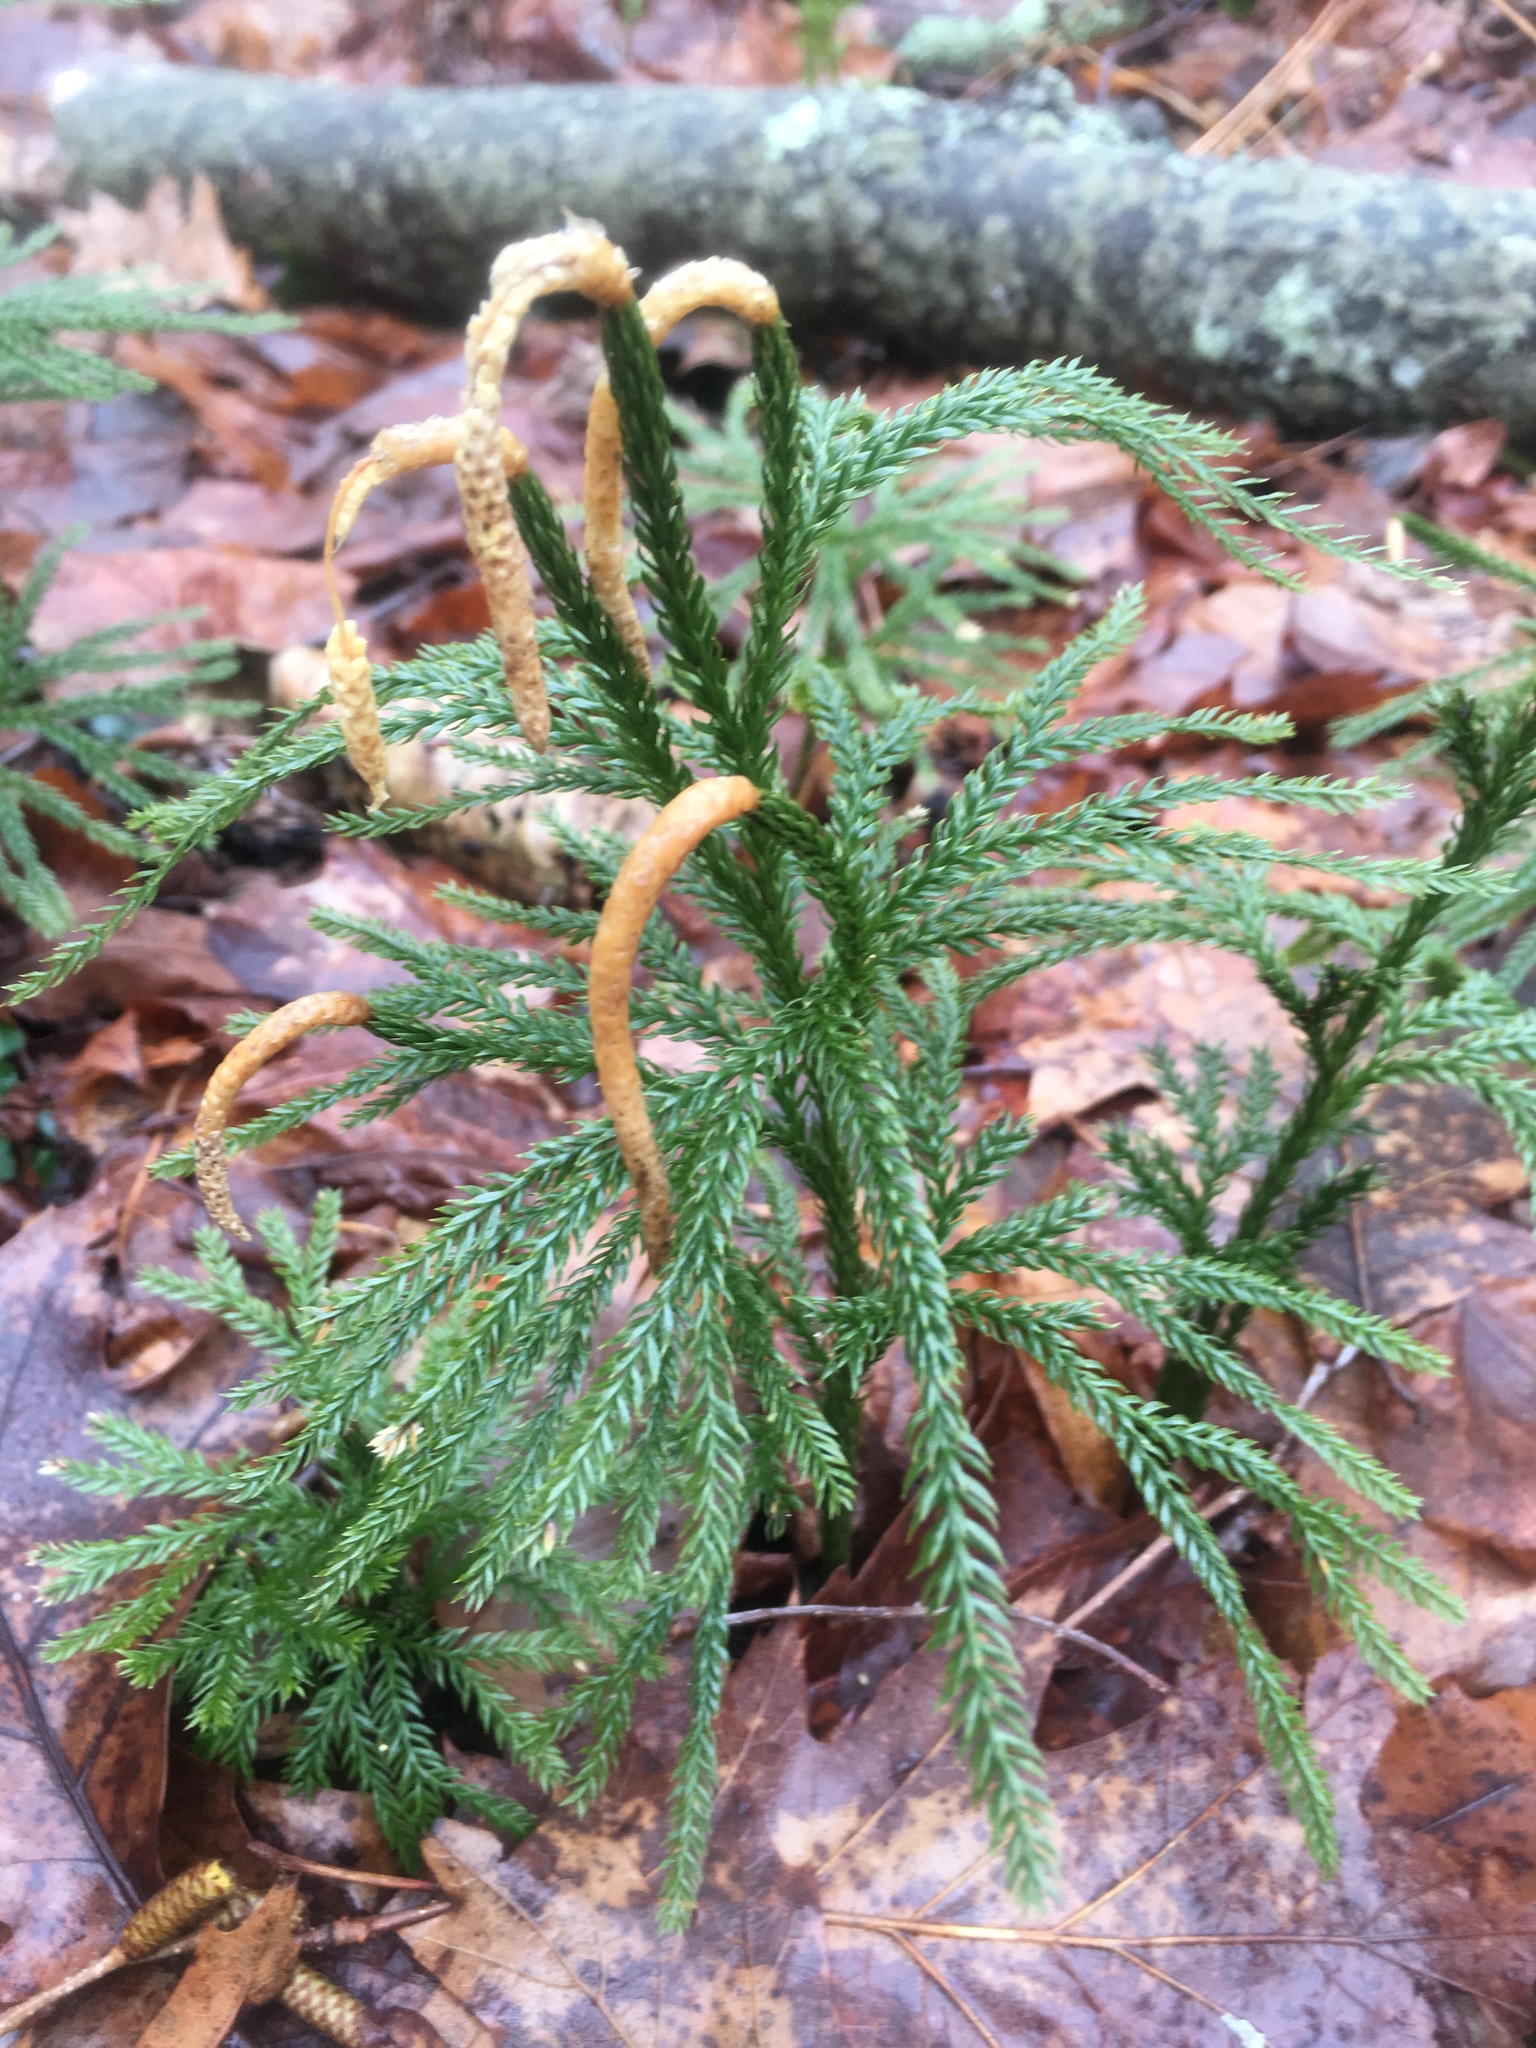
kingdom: Plantae
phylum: Tracheophyta
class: Lycopodiopsida
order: Lycopodiales
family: Lycopodiaceae
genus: Dendrolycopodium
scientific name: Dendrolycopodium obscurum
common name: Common ground-pine
